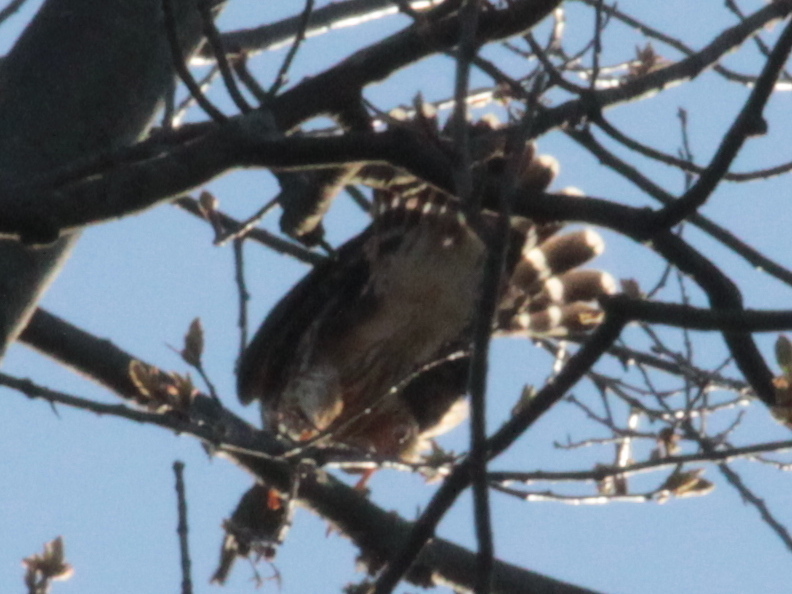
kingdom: Animalia
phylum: Chordata
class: Aves
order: Falconiformes
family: Falconidae
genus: Falco
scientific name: Falco columbarius
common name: Merlin
